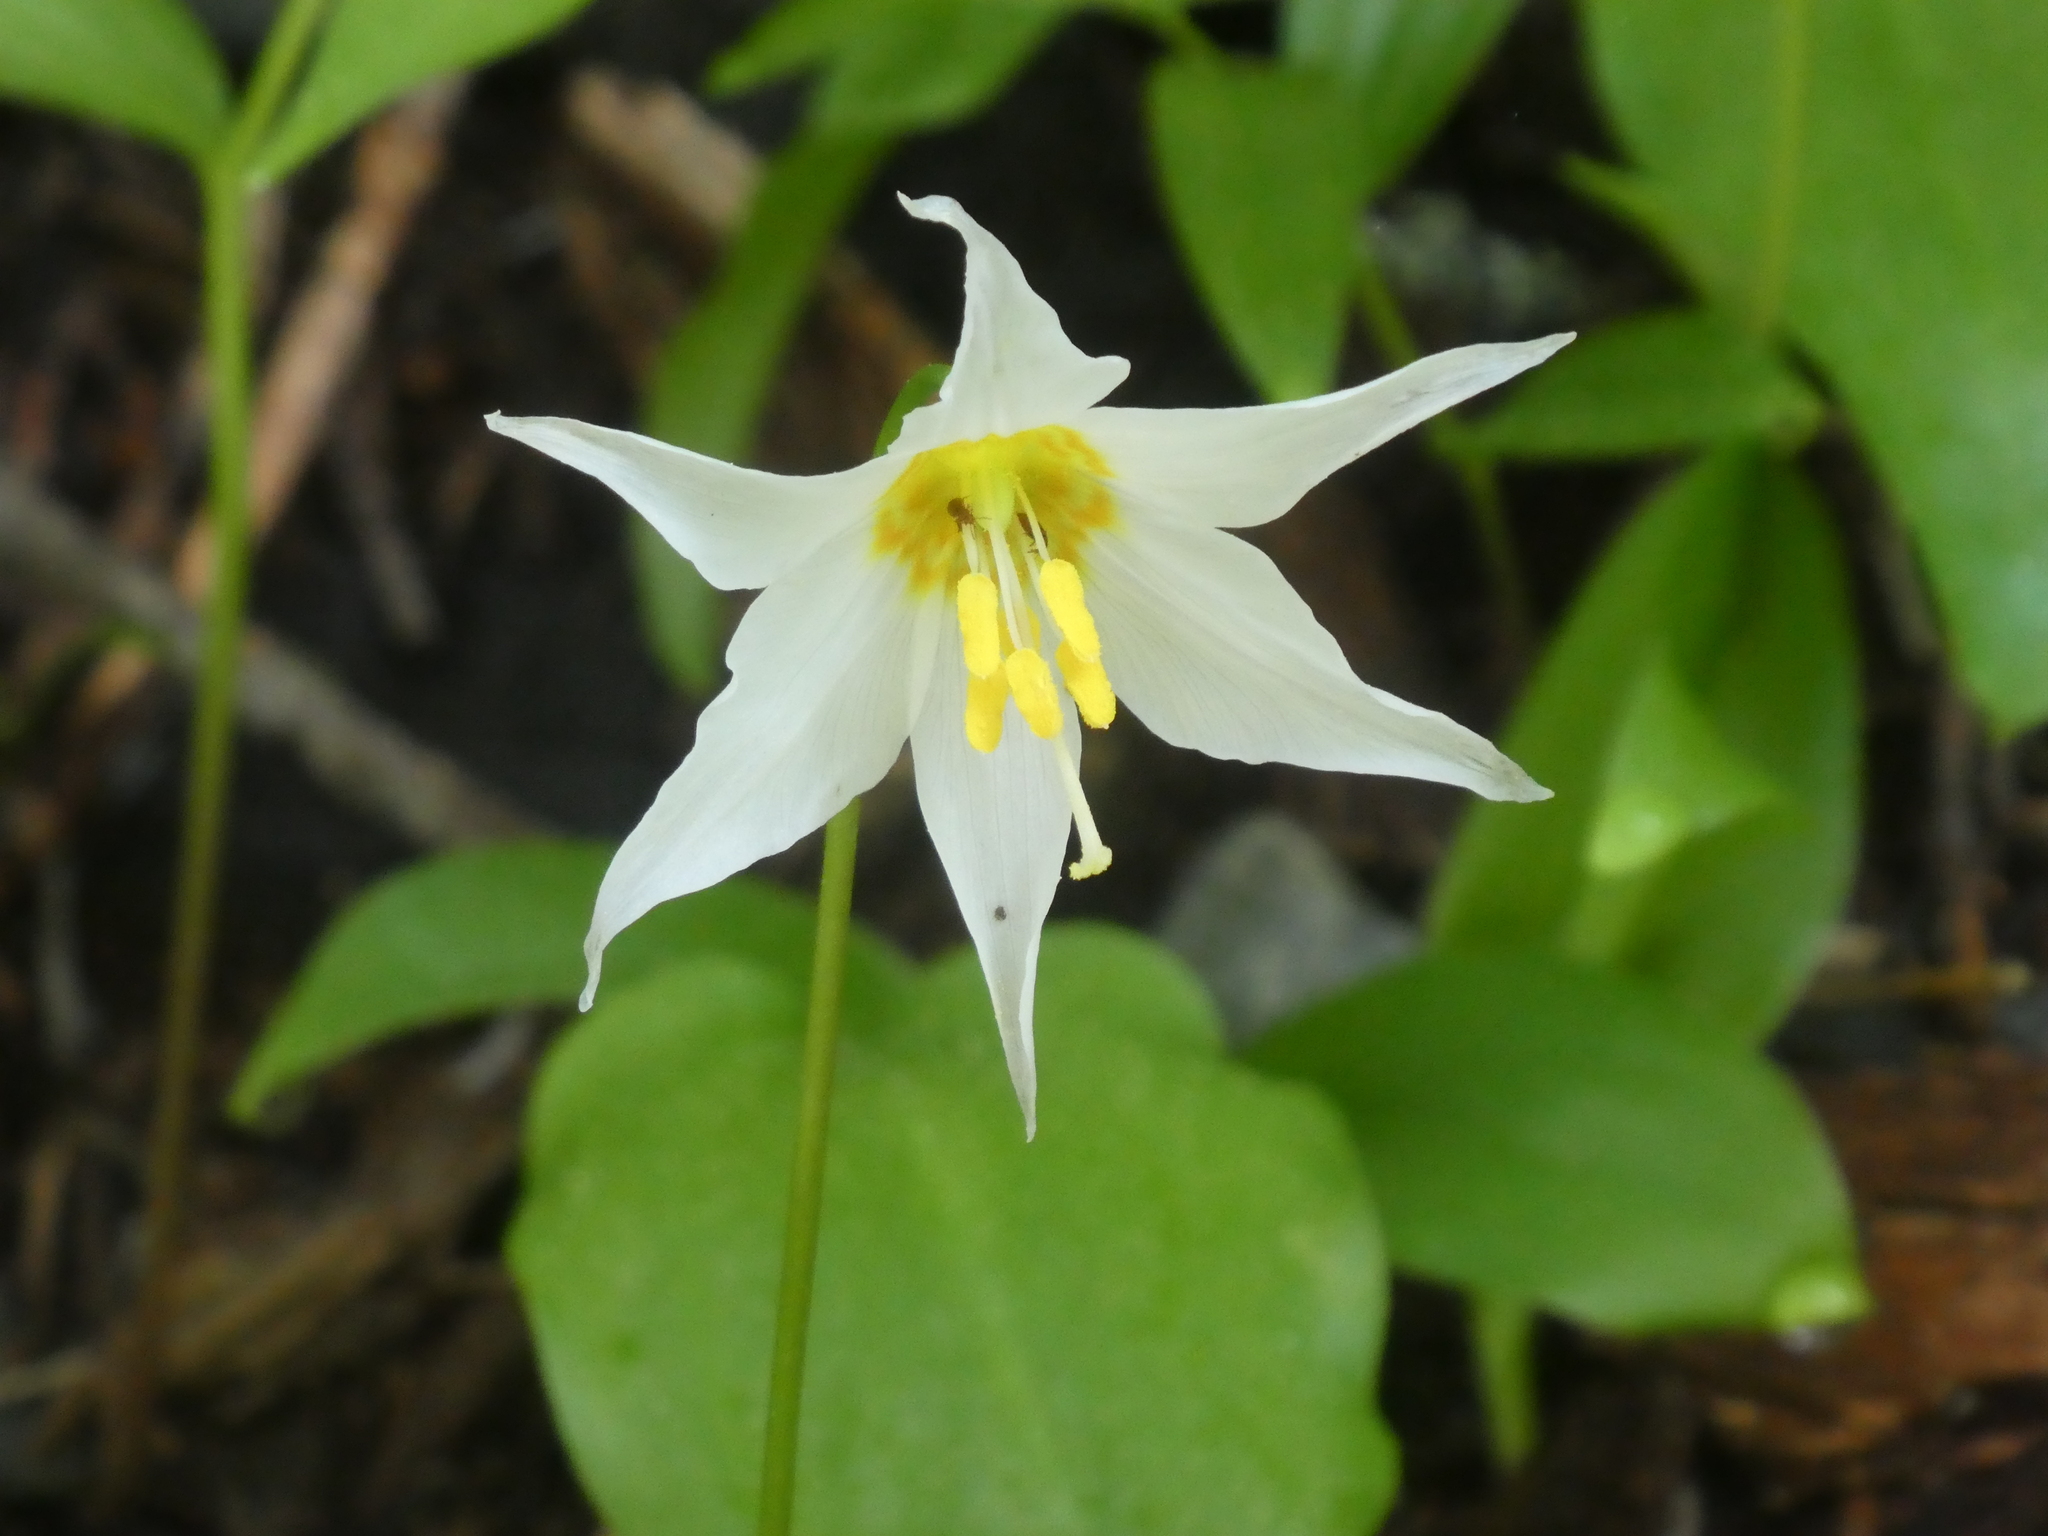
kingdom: Plantae
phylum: Tracheophyta
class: Liliopsida
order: Liliales
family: Liliaceae
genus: Erythronium
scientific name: Erythronium montanum
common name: Avalanche lily
